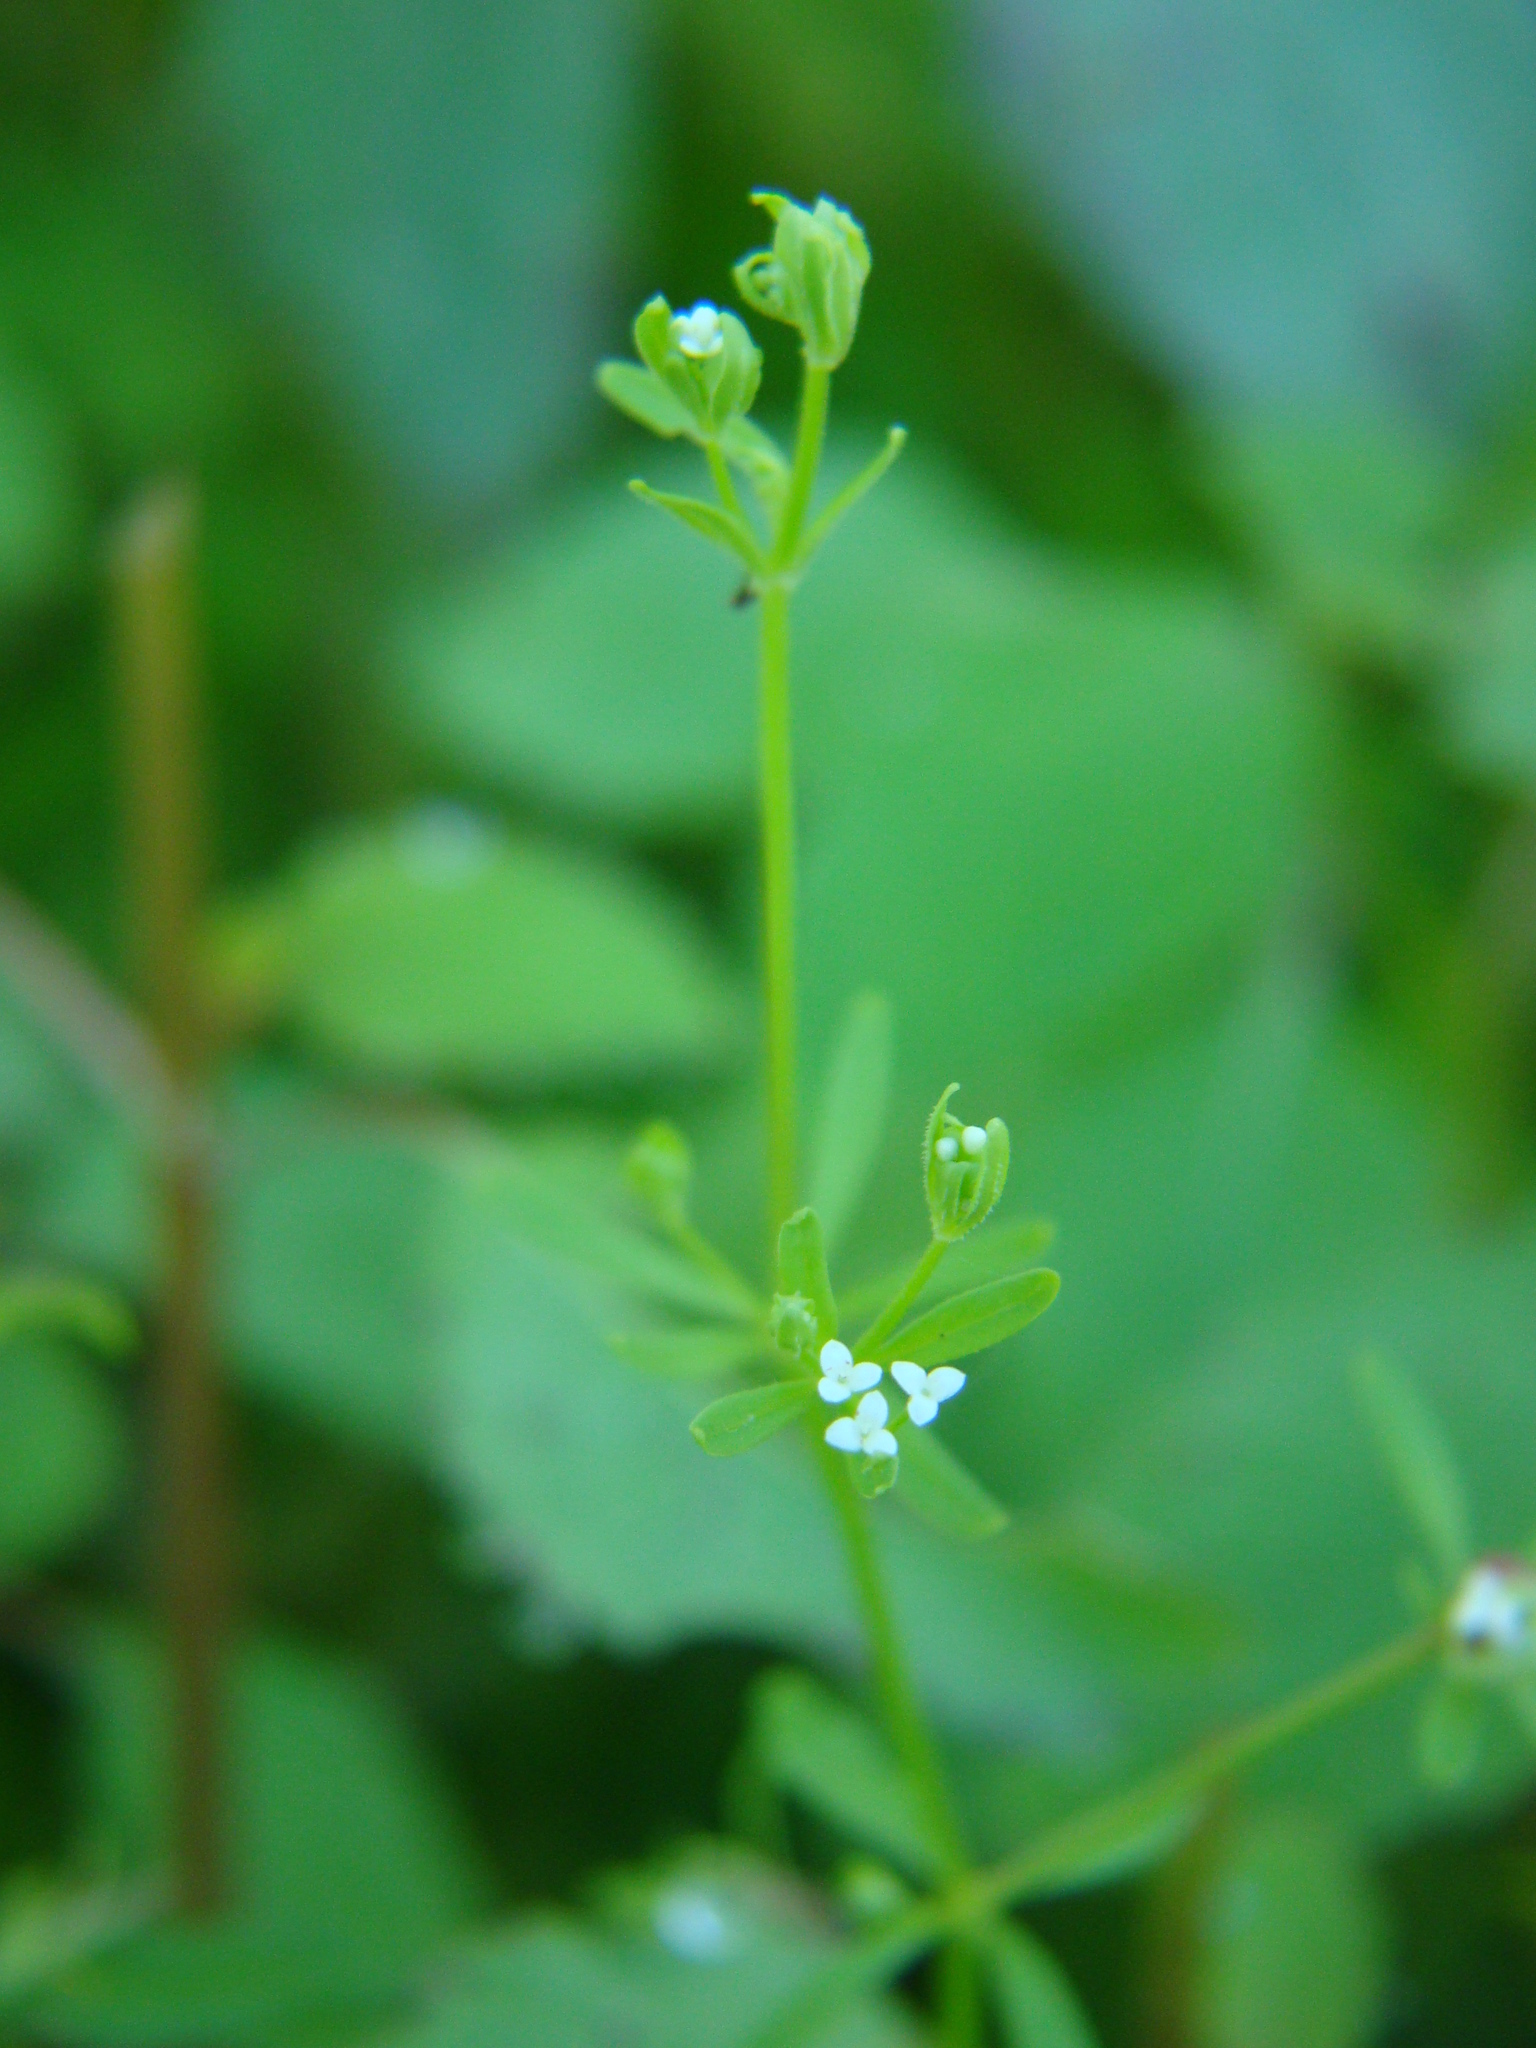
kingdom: Plantae
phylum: Tracheophyta
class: Magnoliopsida
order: Gentianales
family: Rubiaceae
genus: Galium
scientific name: Galium tinctorium
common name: Bedstraw
